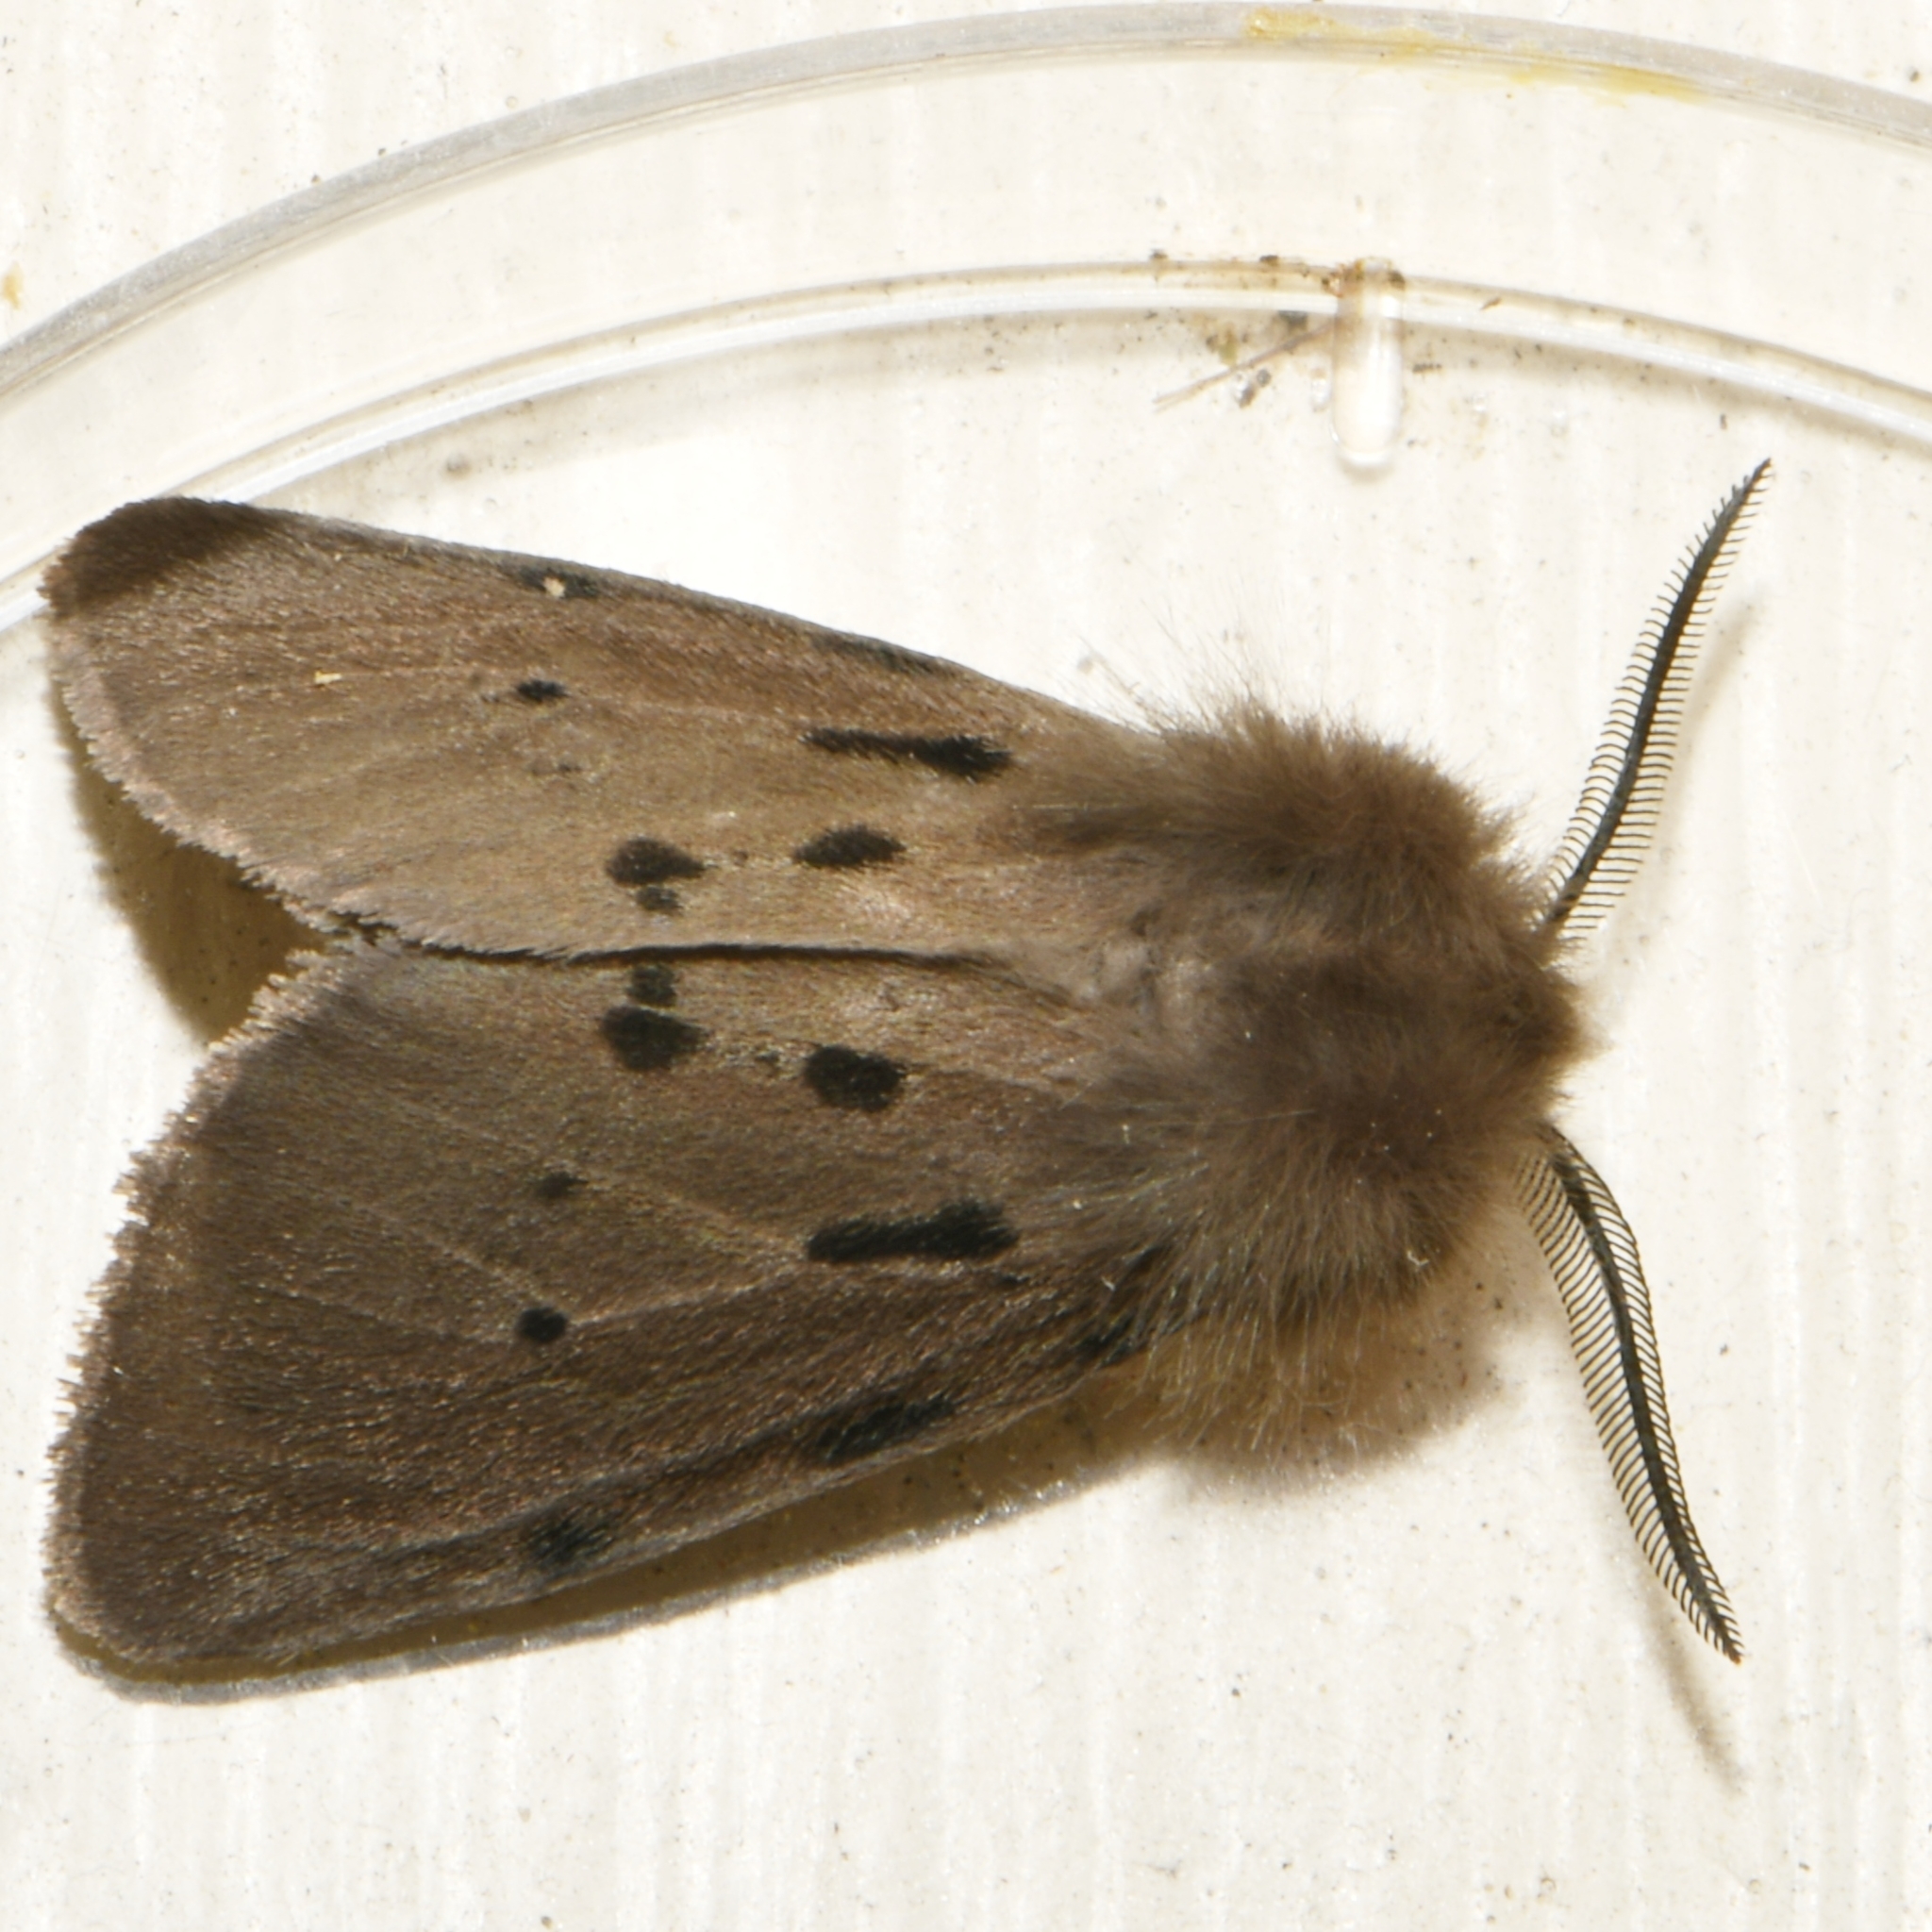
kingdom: Animalia
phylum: Arthropoda
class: Insecta
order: Lepidoptera
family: Erebidae
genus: Diaphora
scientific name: Diaphora mendica
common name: Muslin moth
